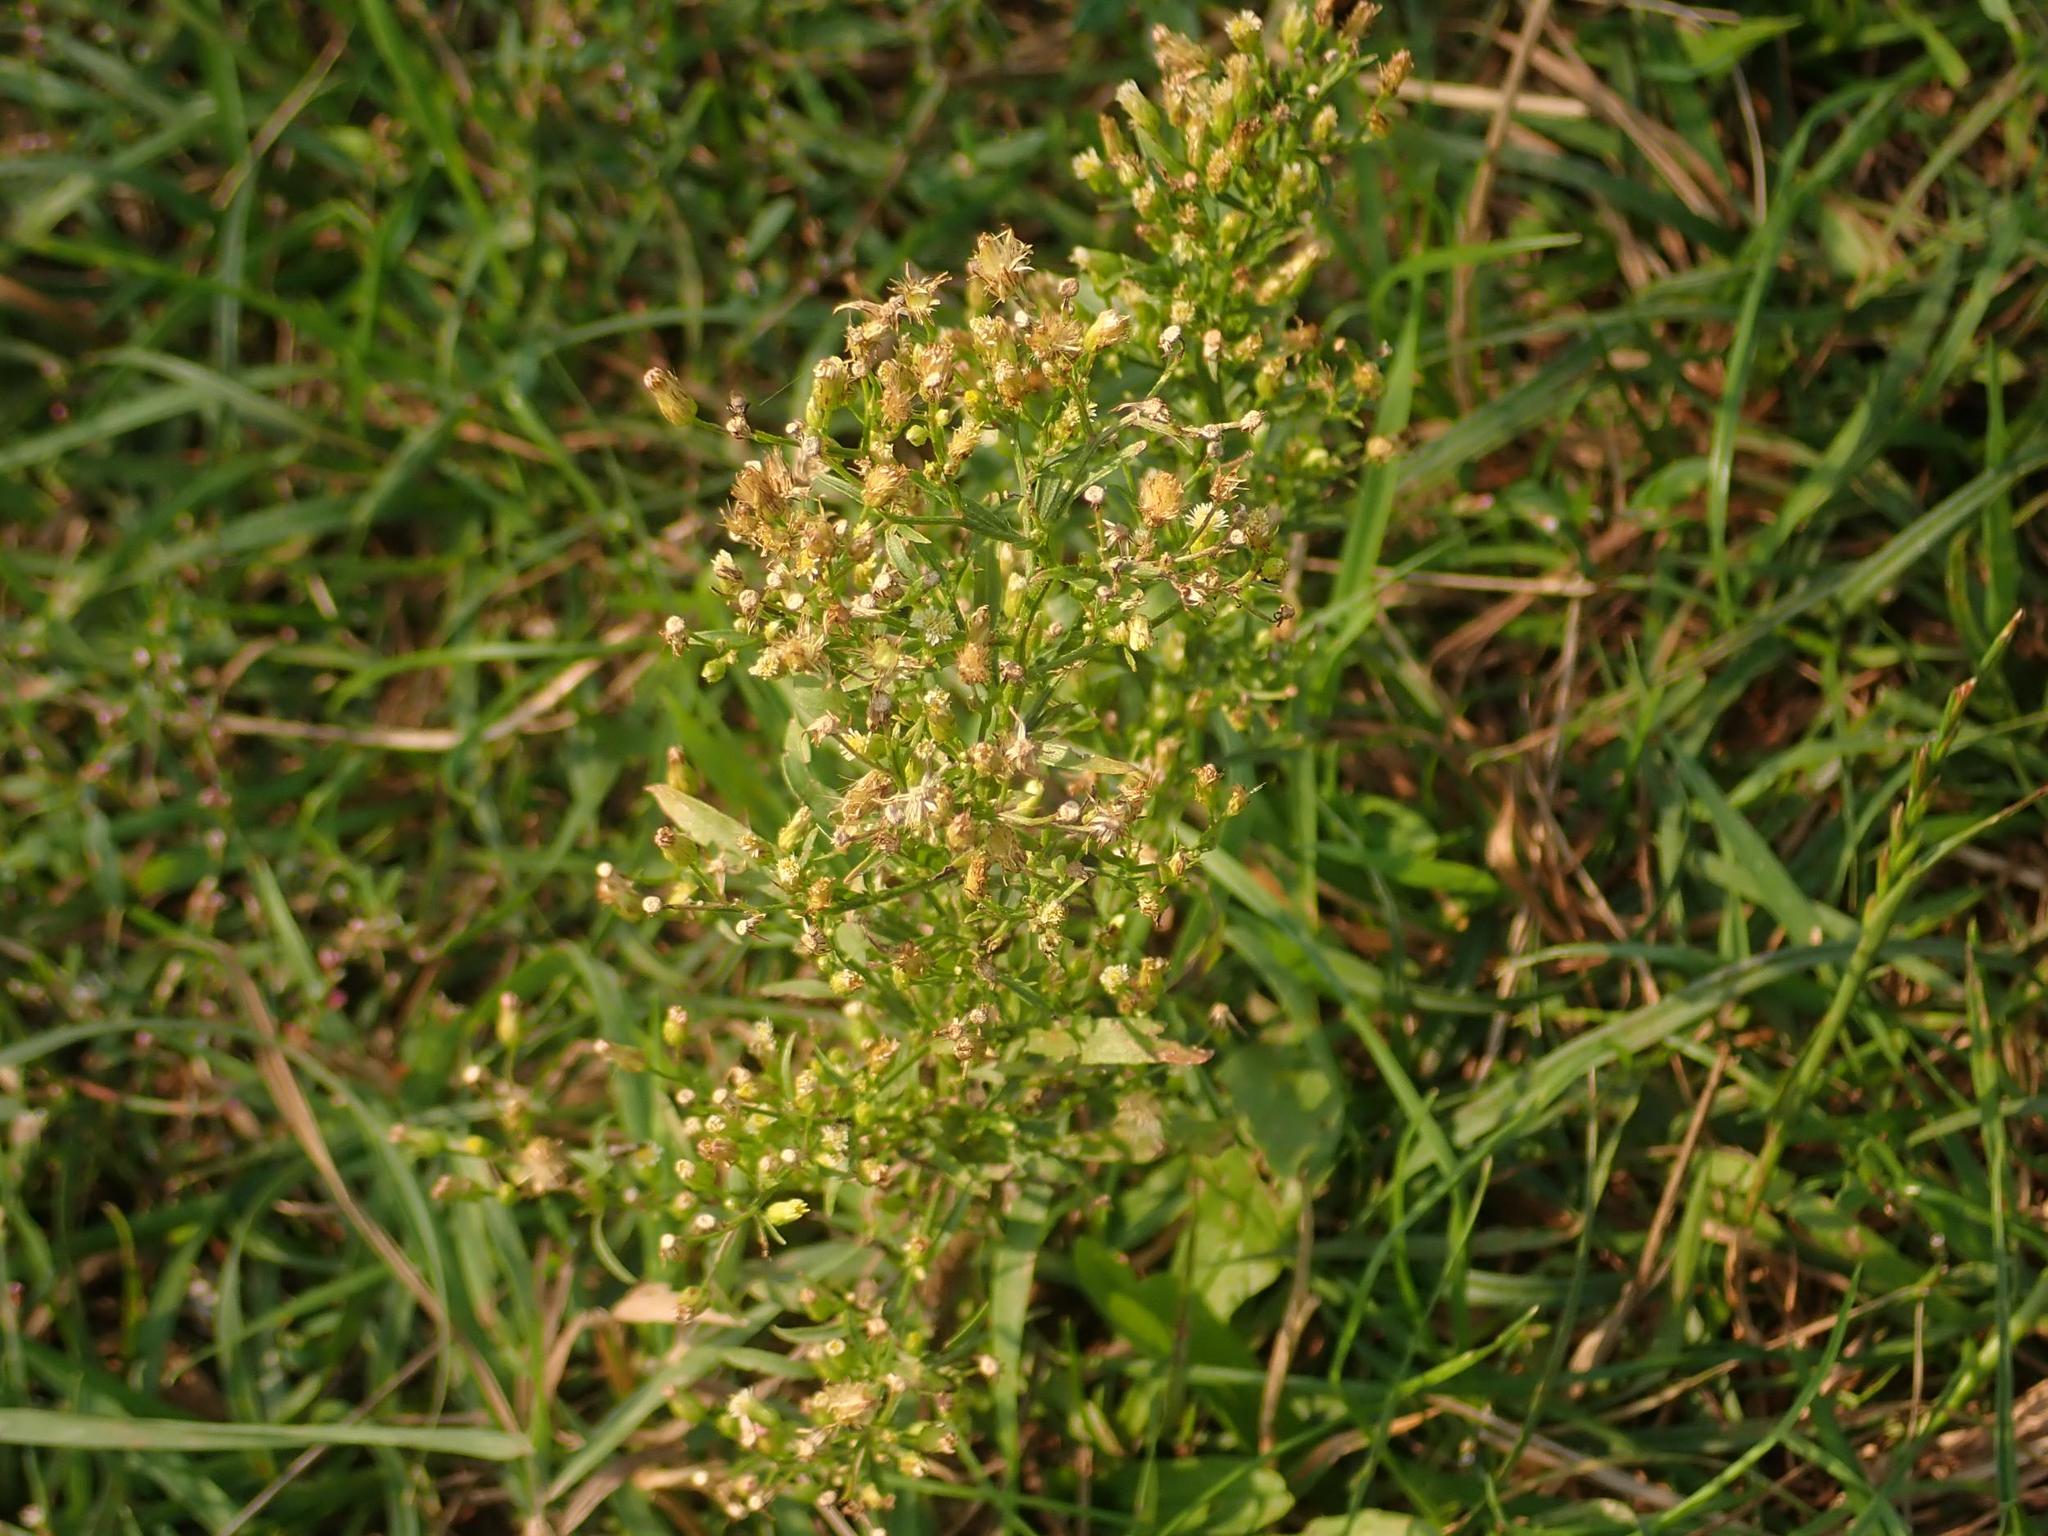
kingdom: Plantae
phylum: Tracheophyta
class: Magnoliopsida
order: Asterales
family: Asteraceae
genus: Erigeron
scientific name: Erigeron canadensis
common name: Canadian fleabane
